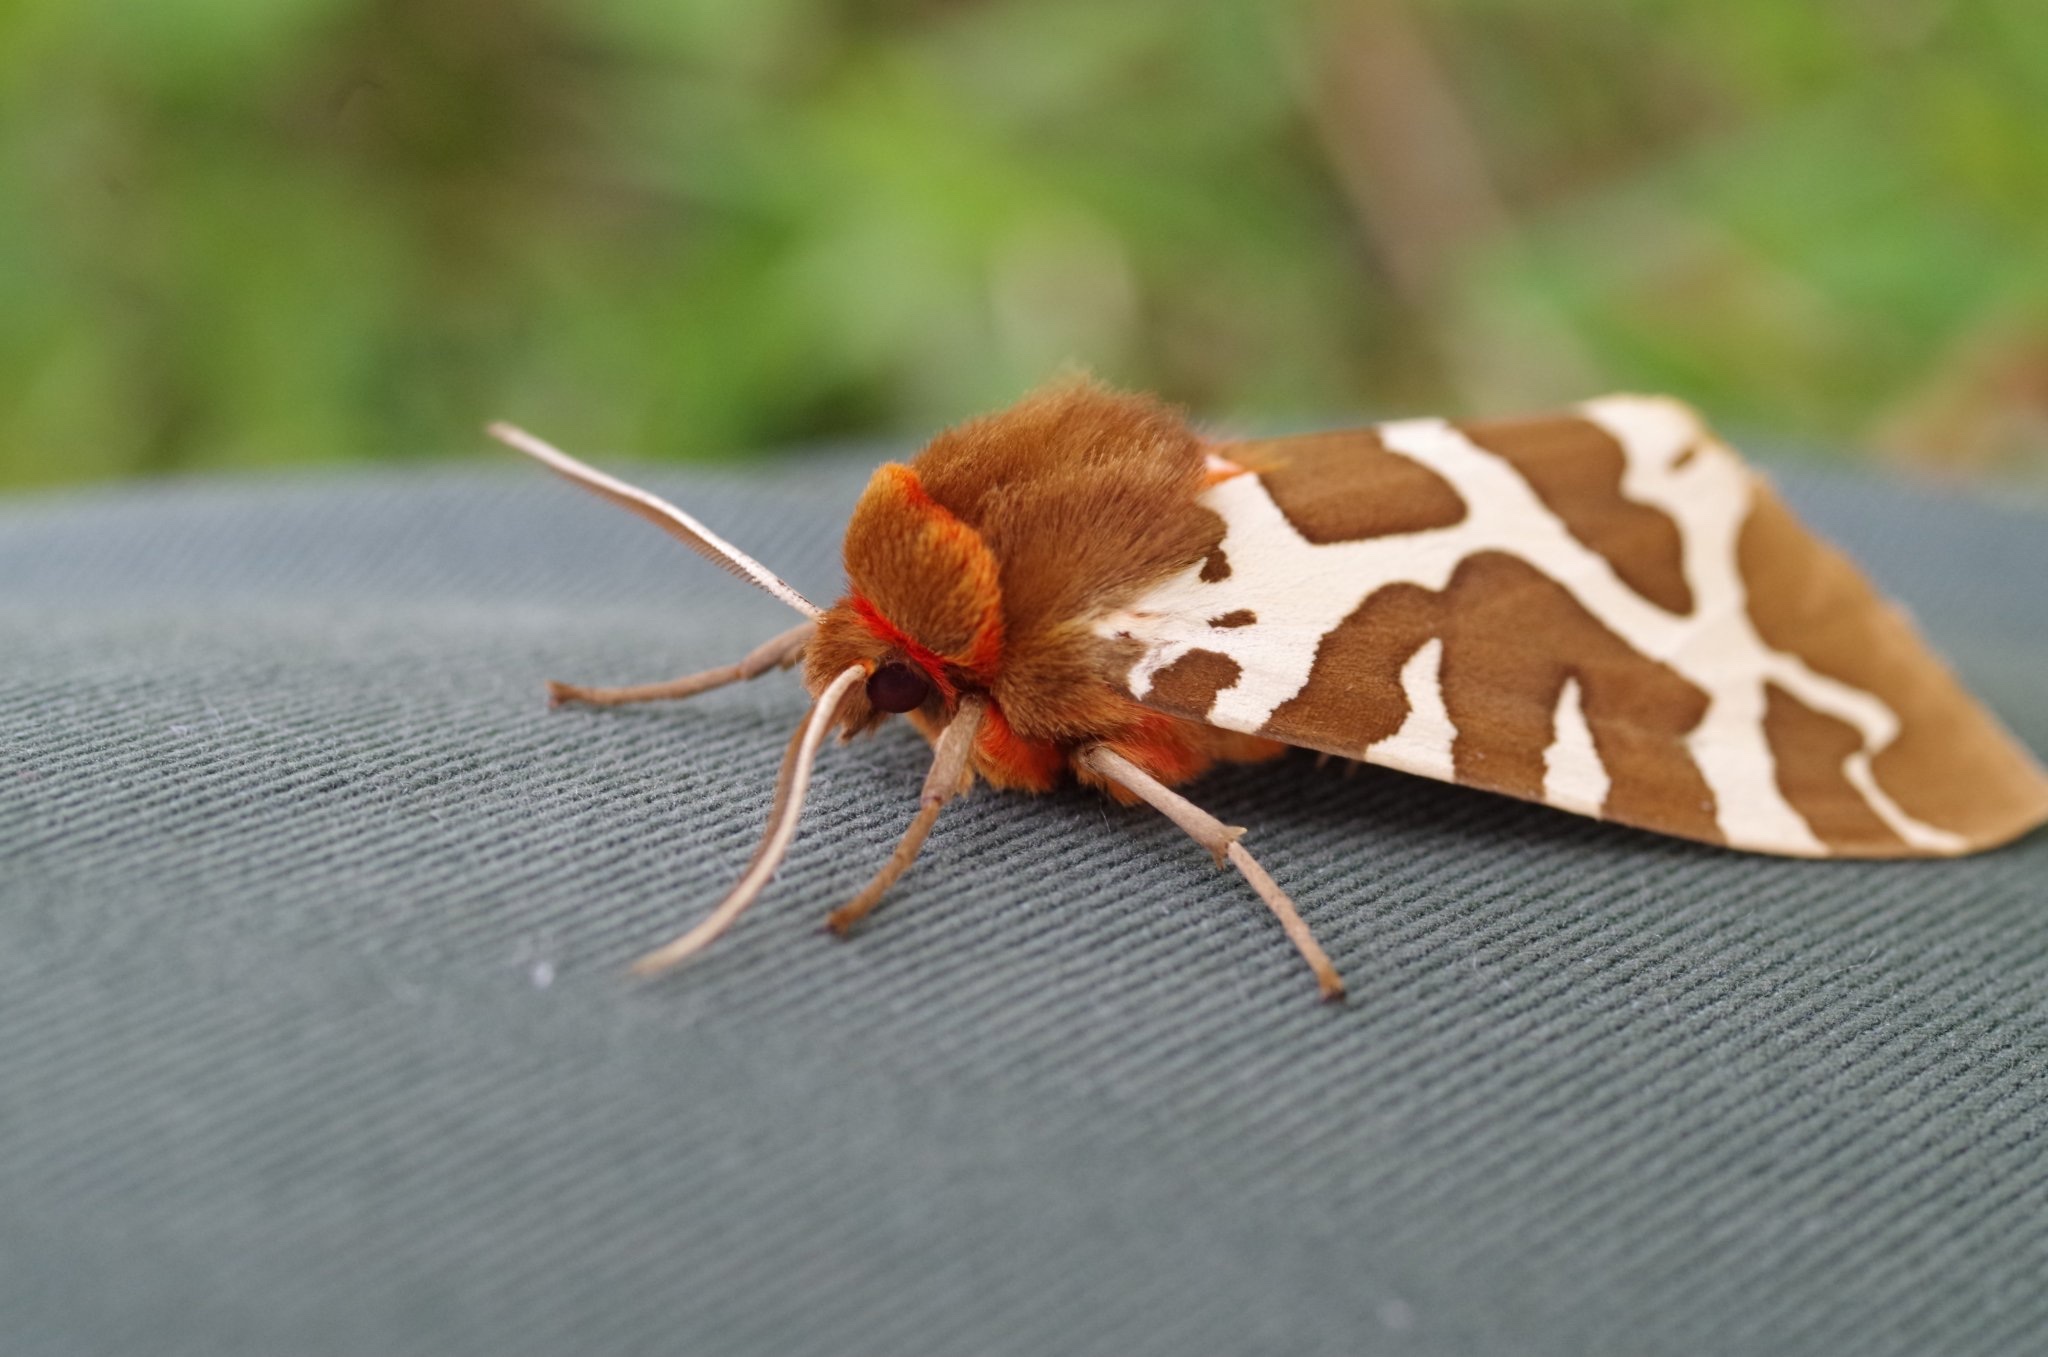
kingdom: Animalia
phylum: Arthropoda
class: Insecta
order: Lepidoptera
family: Erebidae
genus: Arctia
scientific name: Arctia caja
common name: Garden tiger
